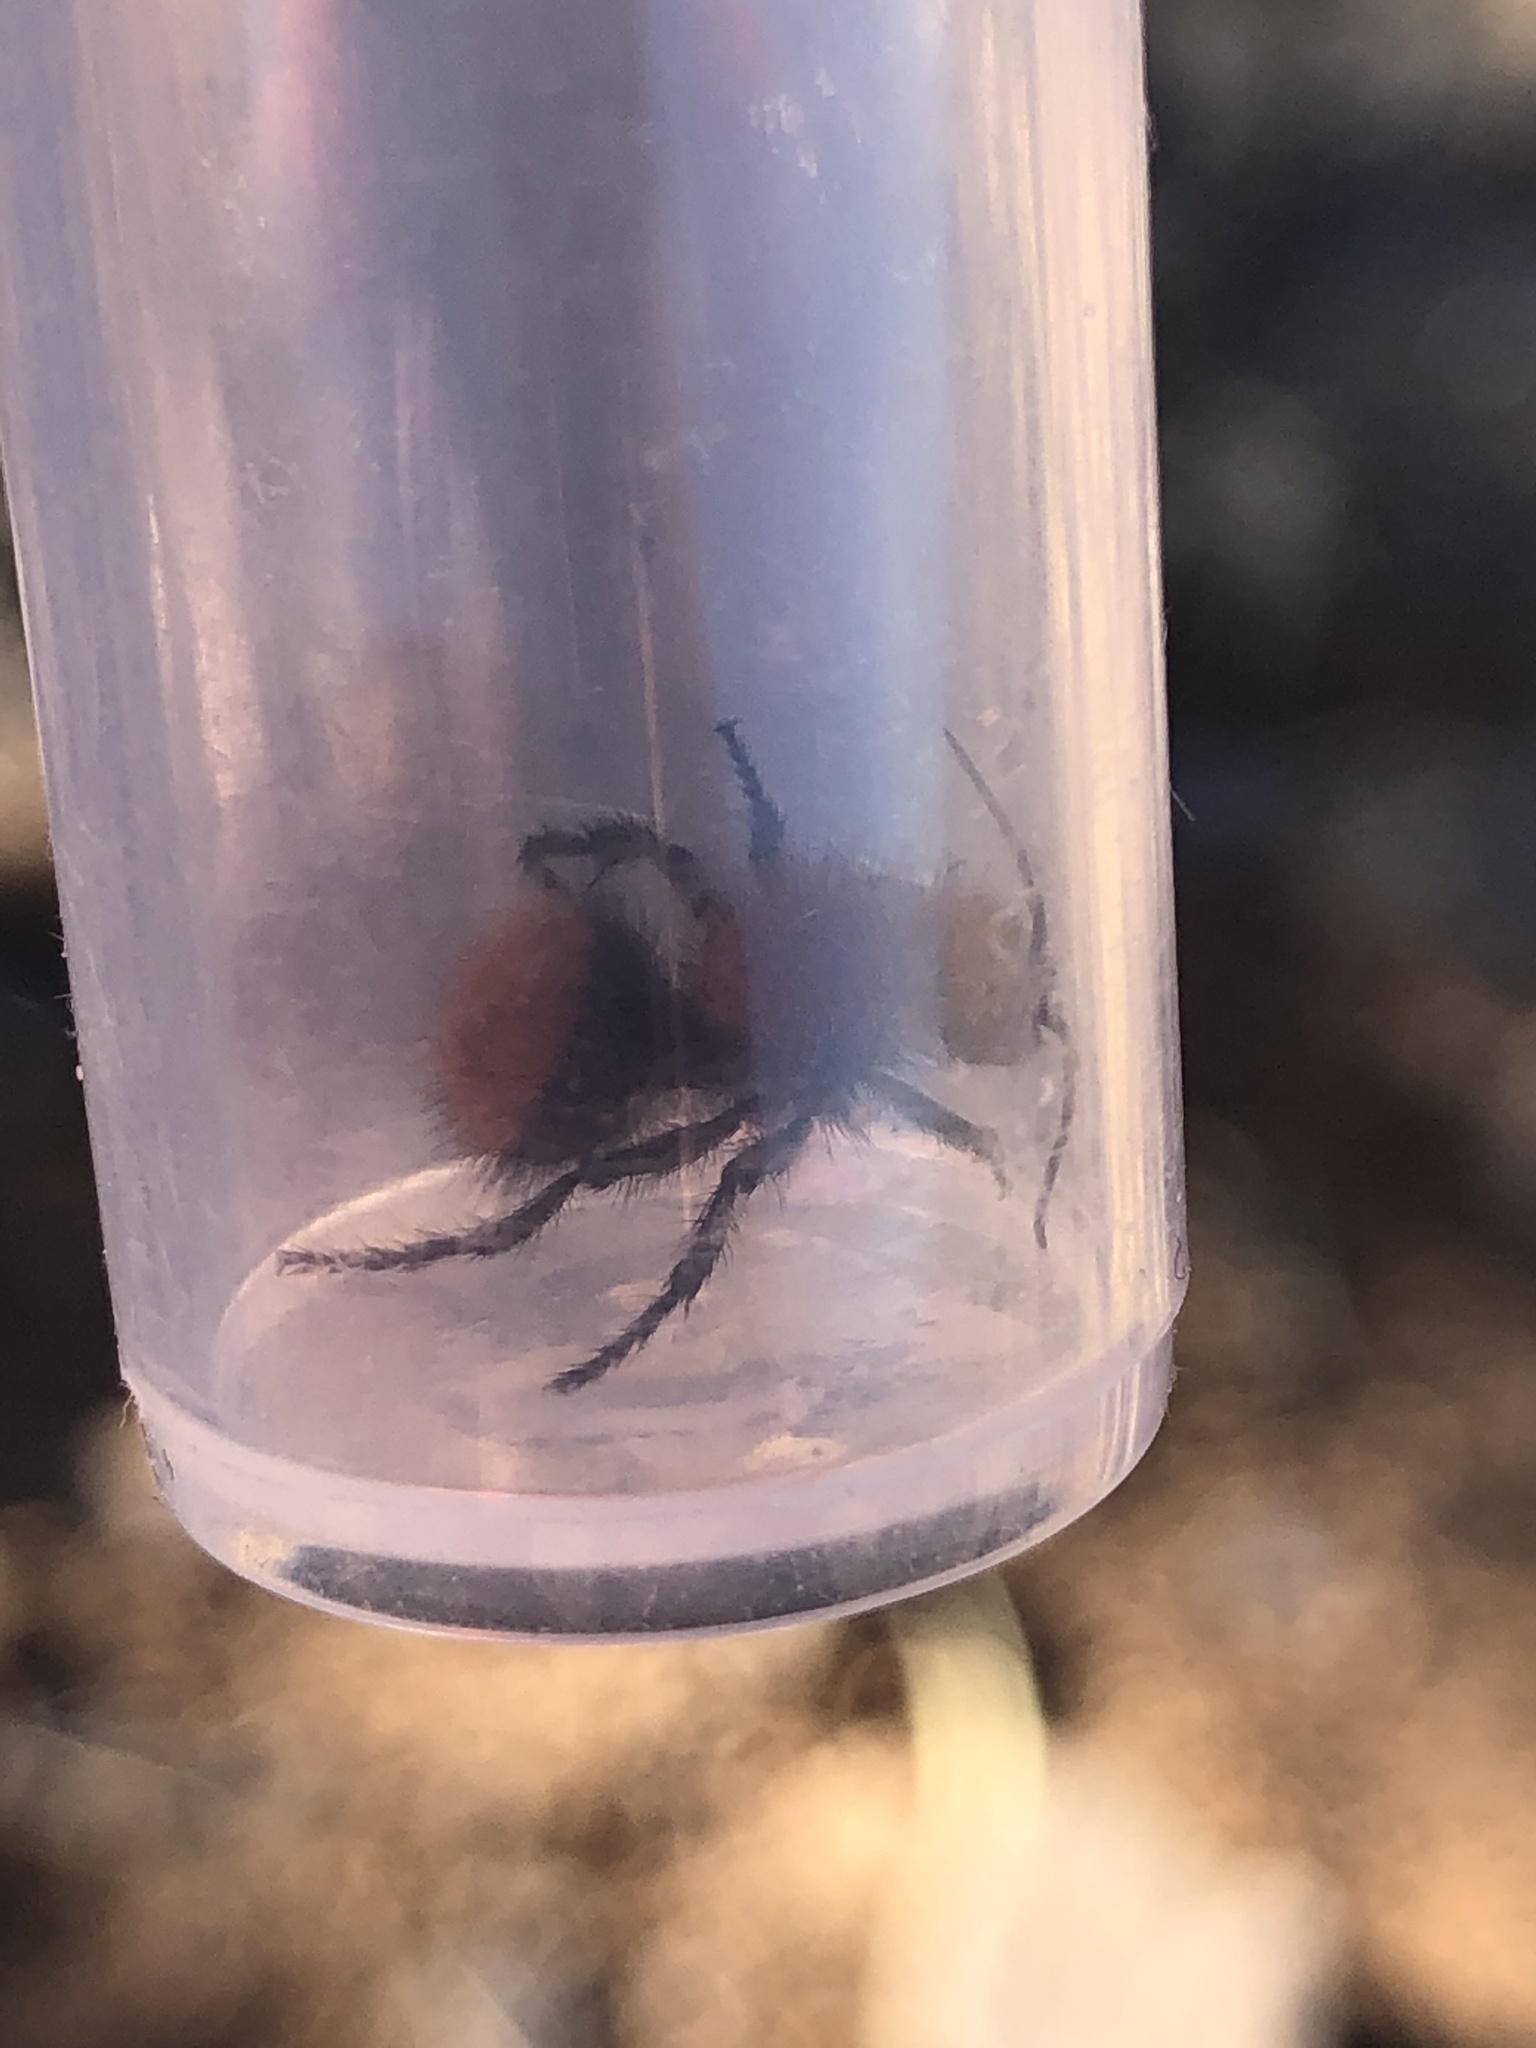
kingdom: Animalia
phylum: Arthropoda
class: Insecta
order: Hymenoptera
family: Mutillidae
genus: Dasymutilla
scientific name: Dasymutilla vestita
